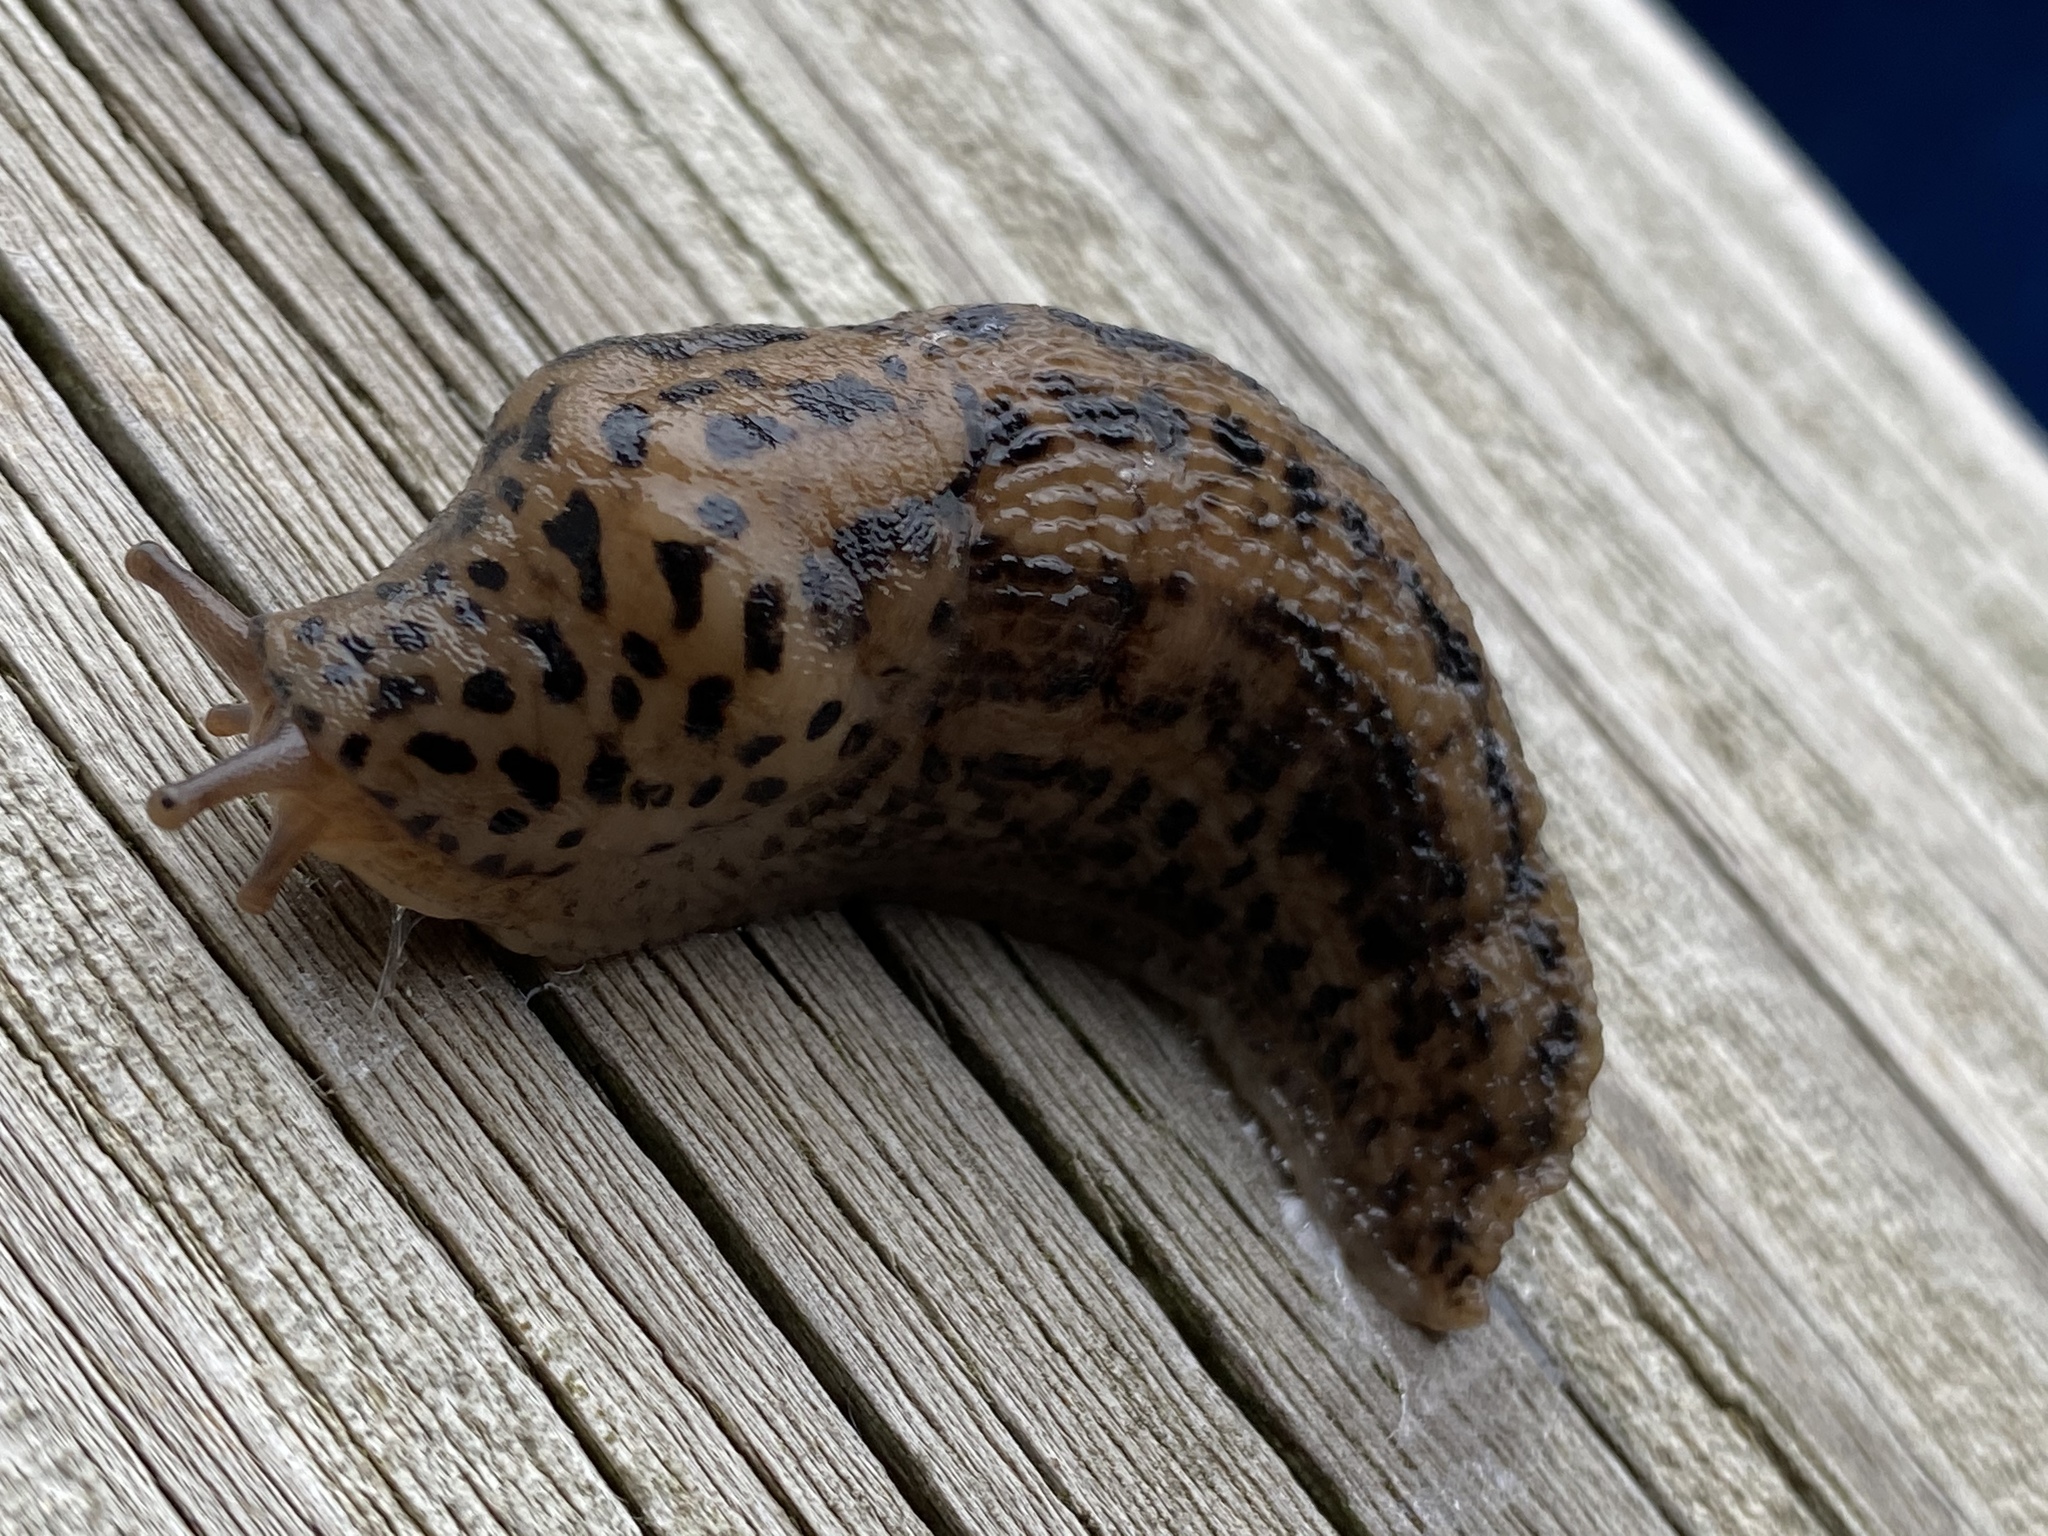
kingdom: Animalia
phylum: Mollusca
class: Gastropoda
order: Stylommatophora
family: Limacidae
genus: Limax
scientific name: Limax maximus
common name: Great grey slug
